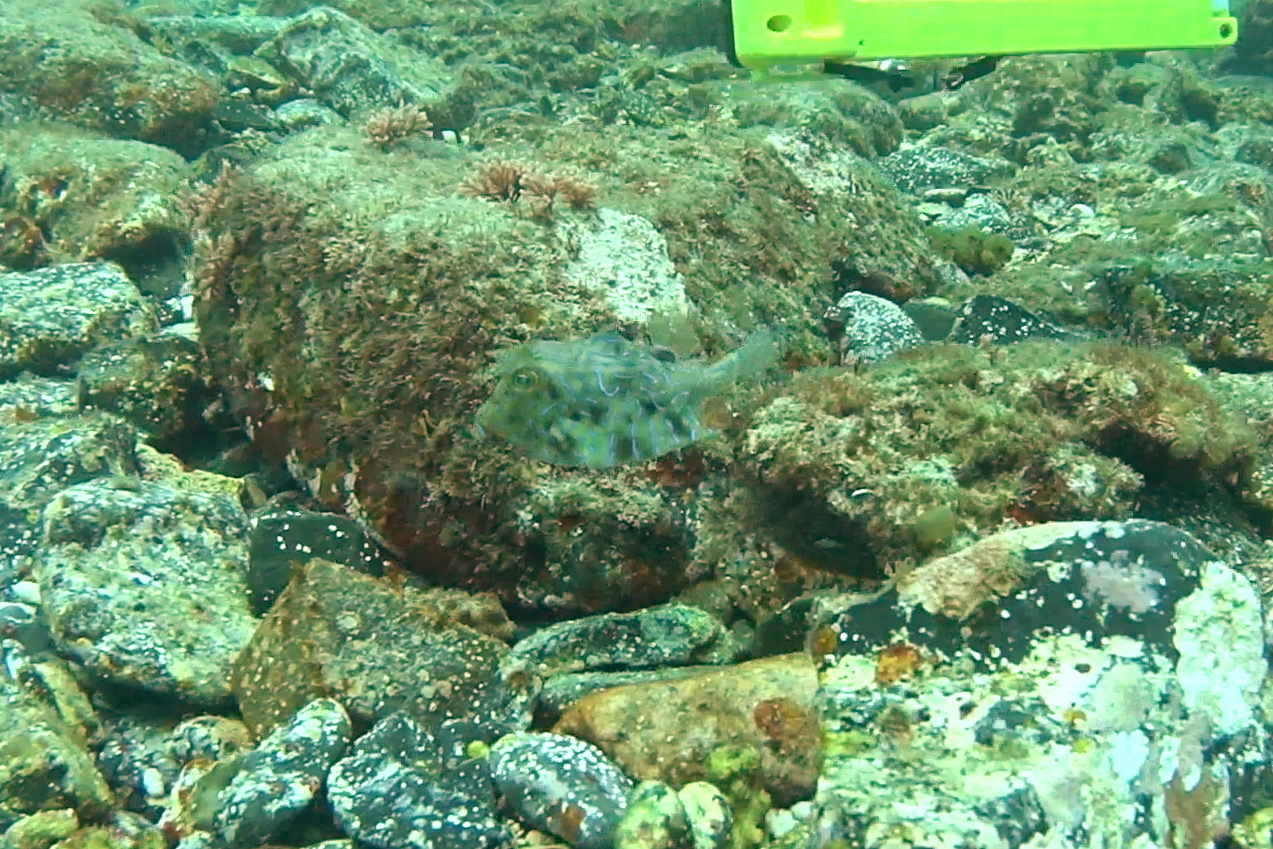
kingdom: Animalia
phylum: Chordata
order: Tetraodontiformes
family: Ostraciidae
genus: Lactoria
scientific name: Lactoria fornasini
